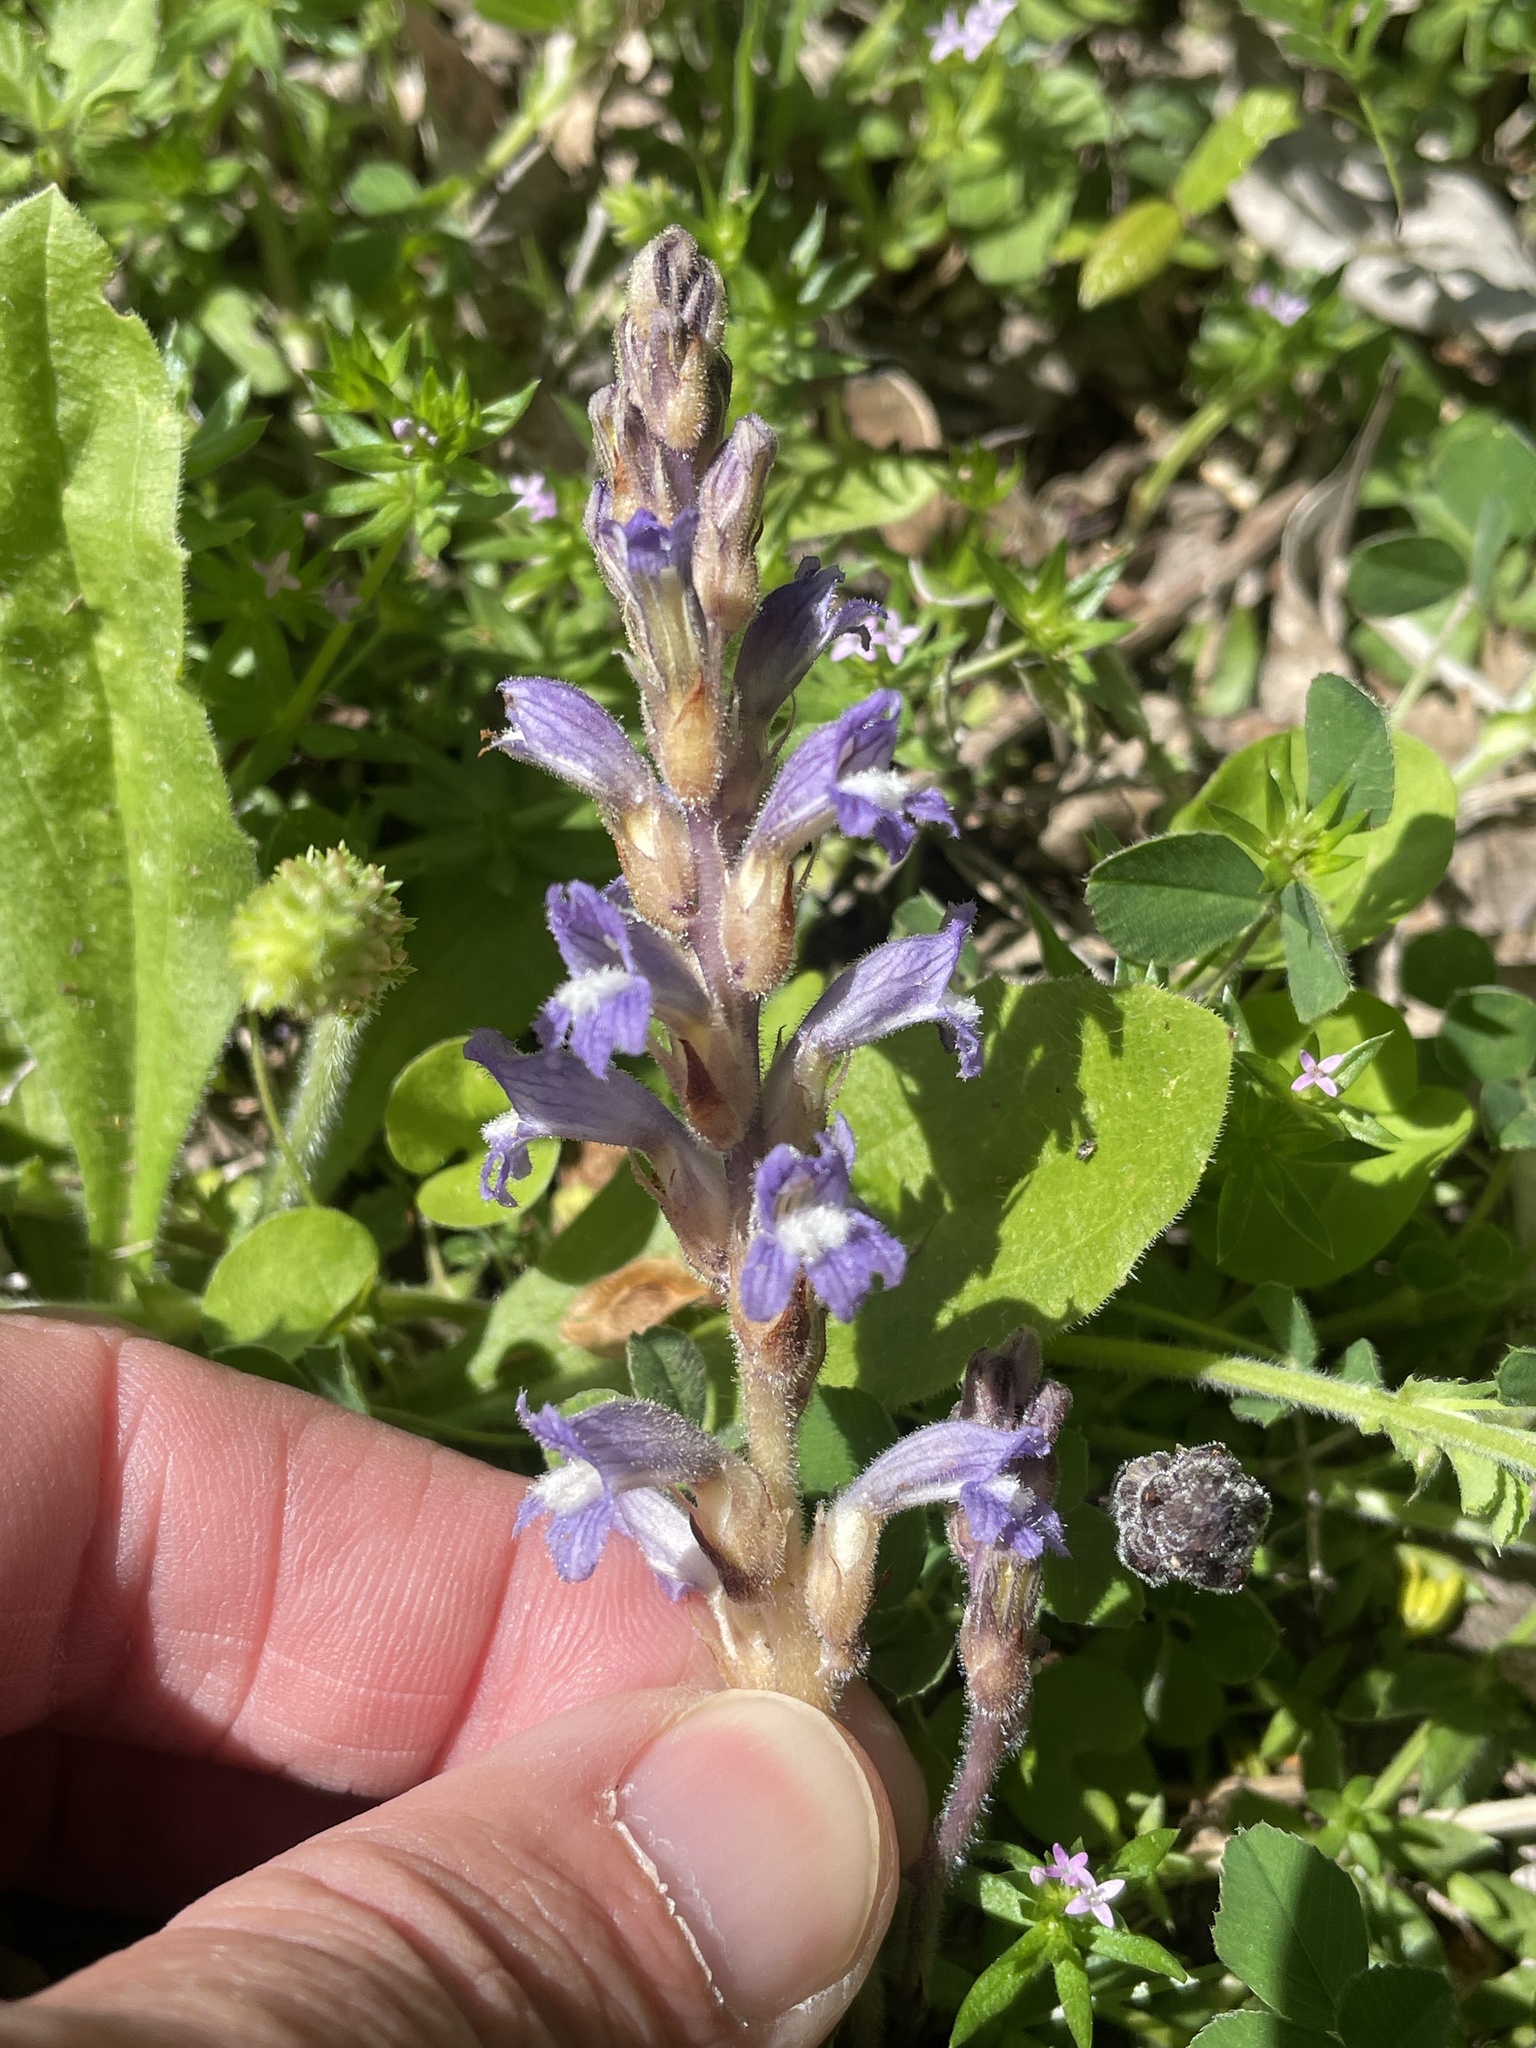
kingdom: Plantae
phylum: Tracheophyta
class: Magnoliopsida
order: Lamiales
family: Orobanchaceae
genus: Phelipanche
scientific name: Phelipanche mutelii
